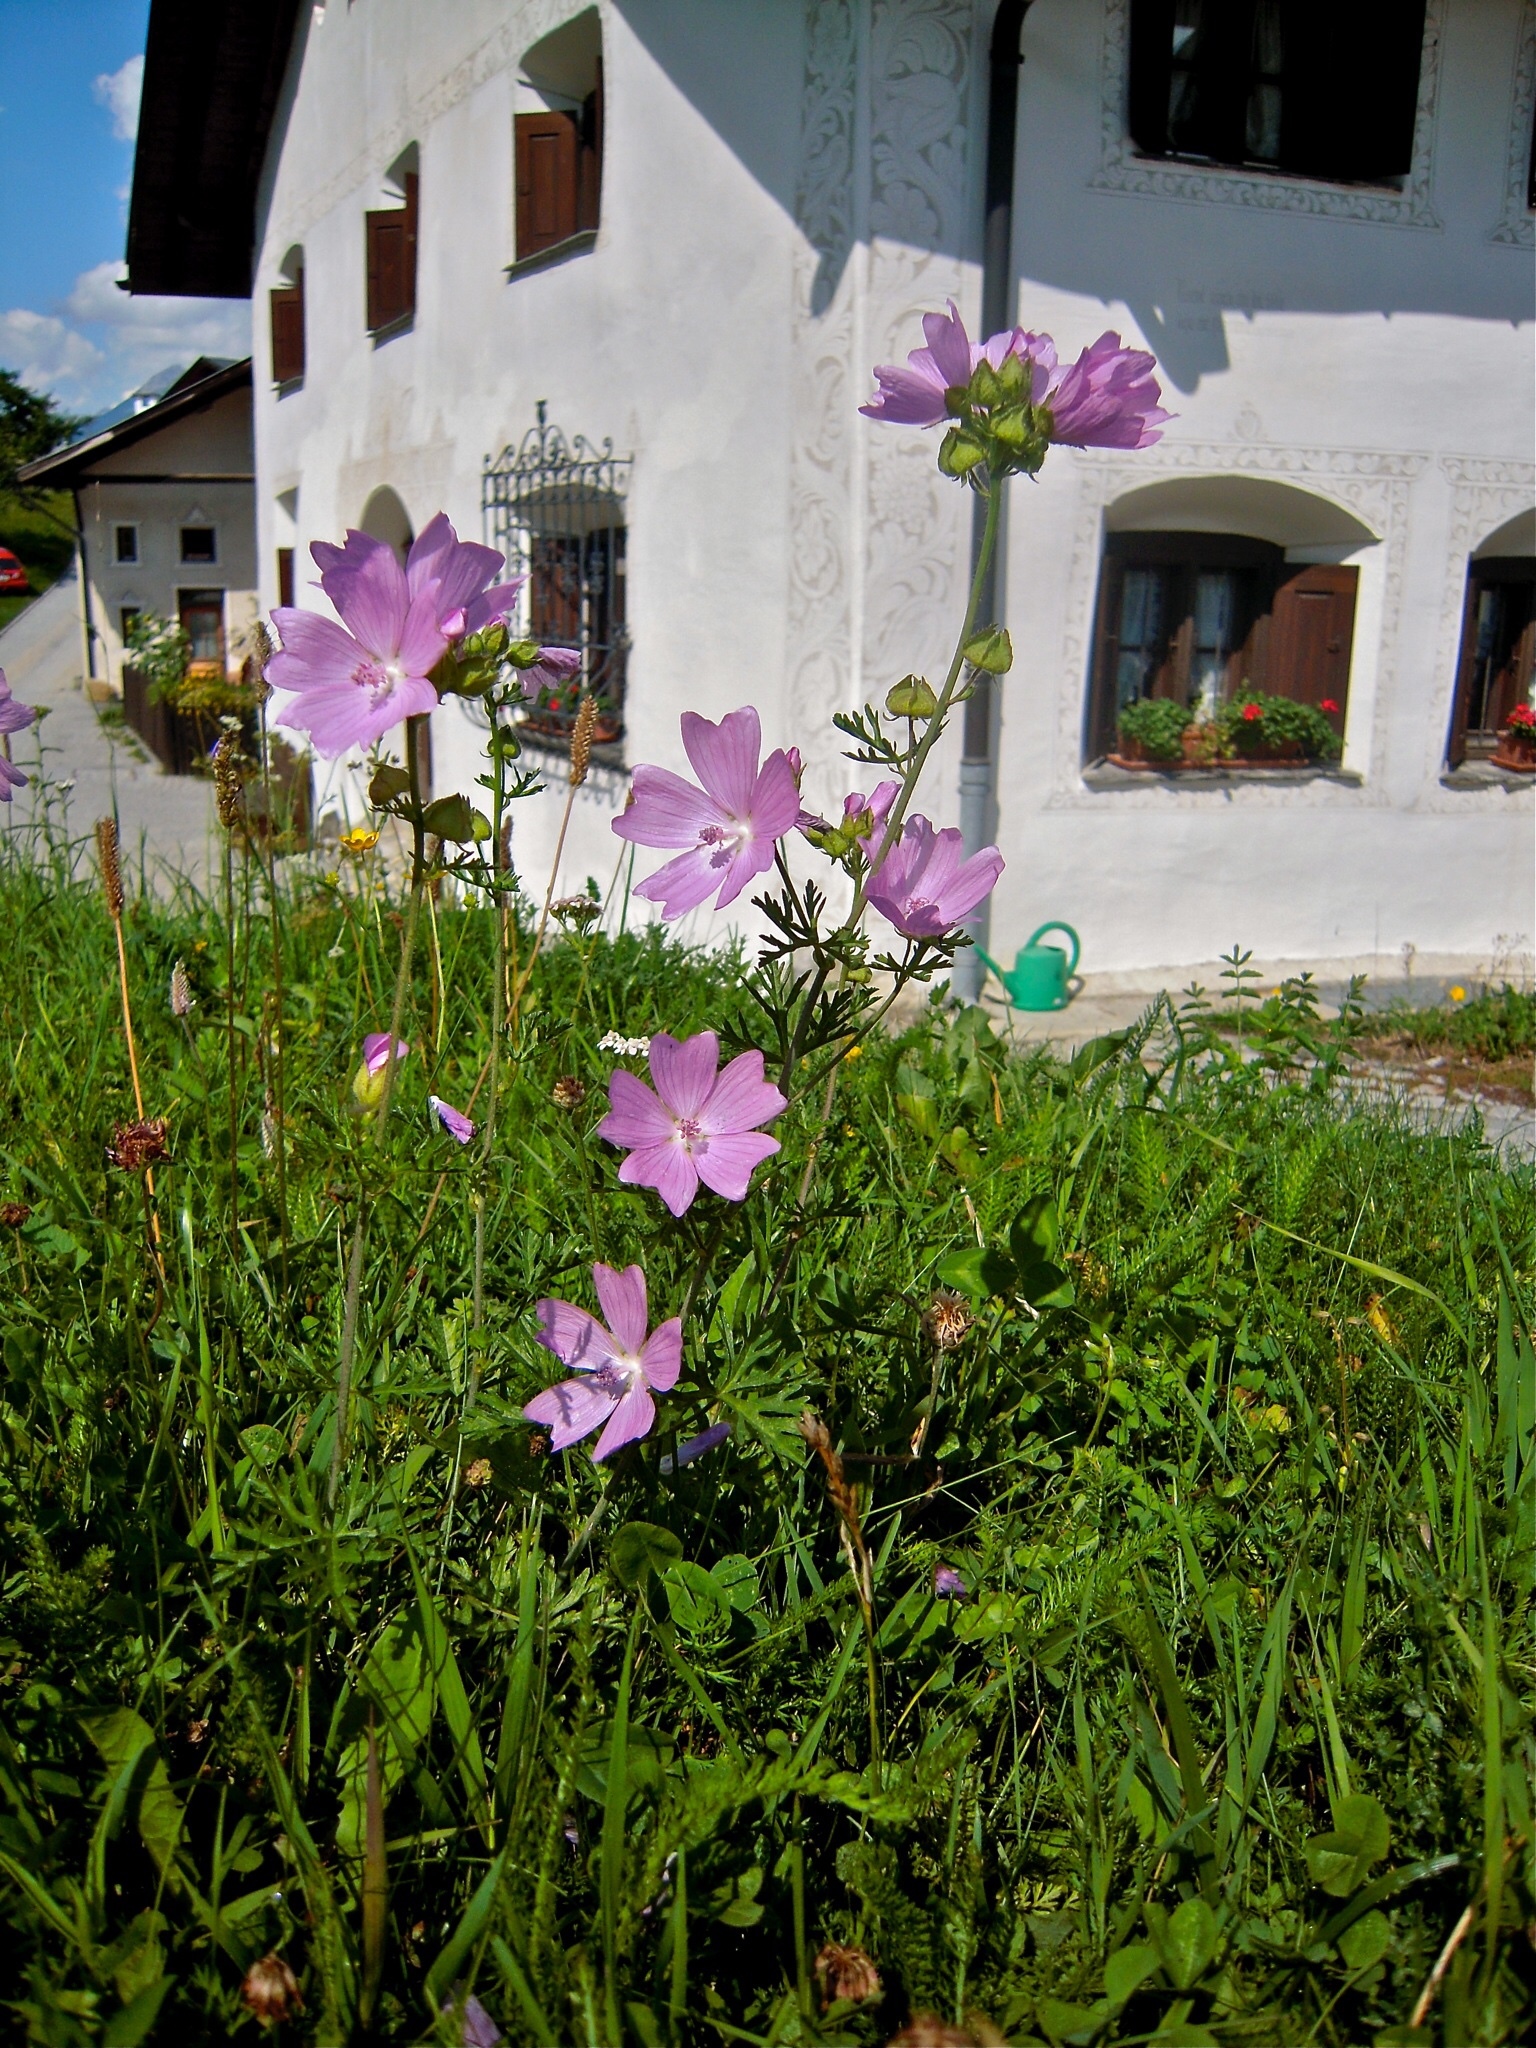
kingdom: Plantae
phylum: Tracheophyta
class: Magnoliopsida
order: Malvales
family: Malvaceae
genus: Malva
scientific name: Malva moschata
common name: Musk mallow
